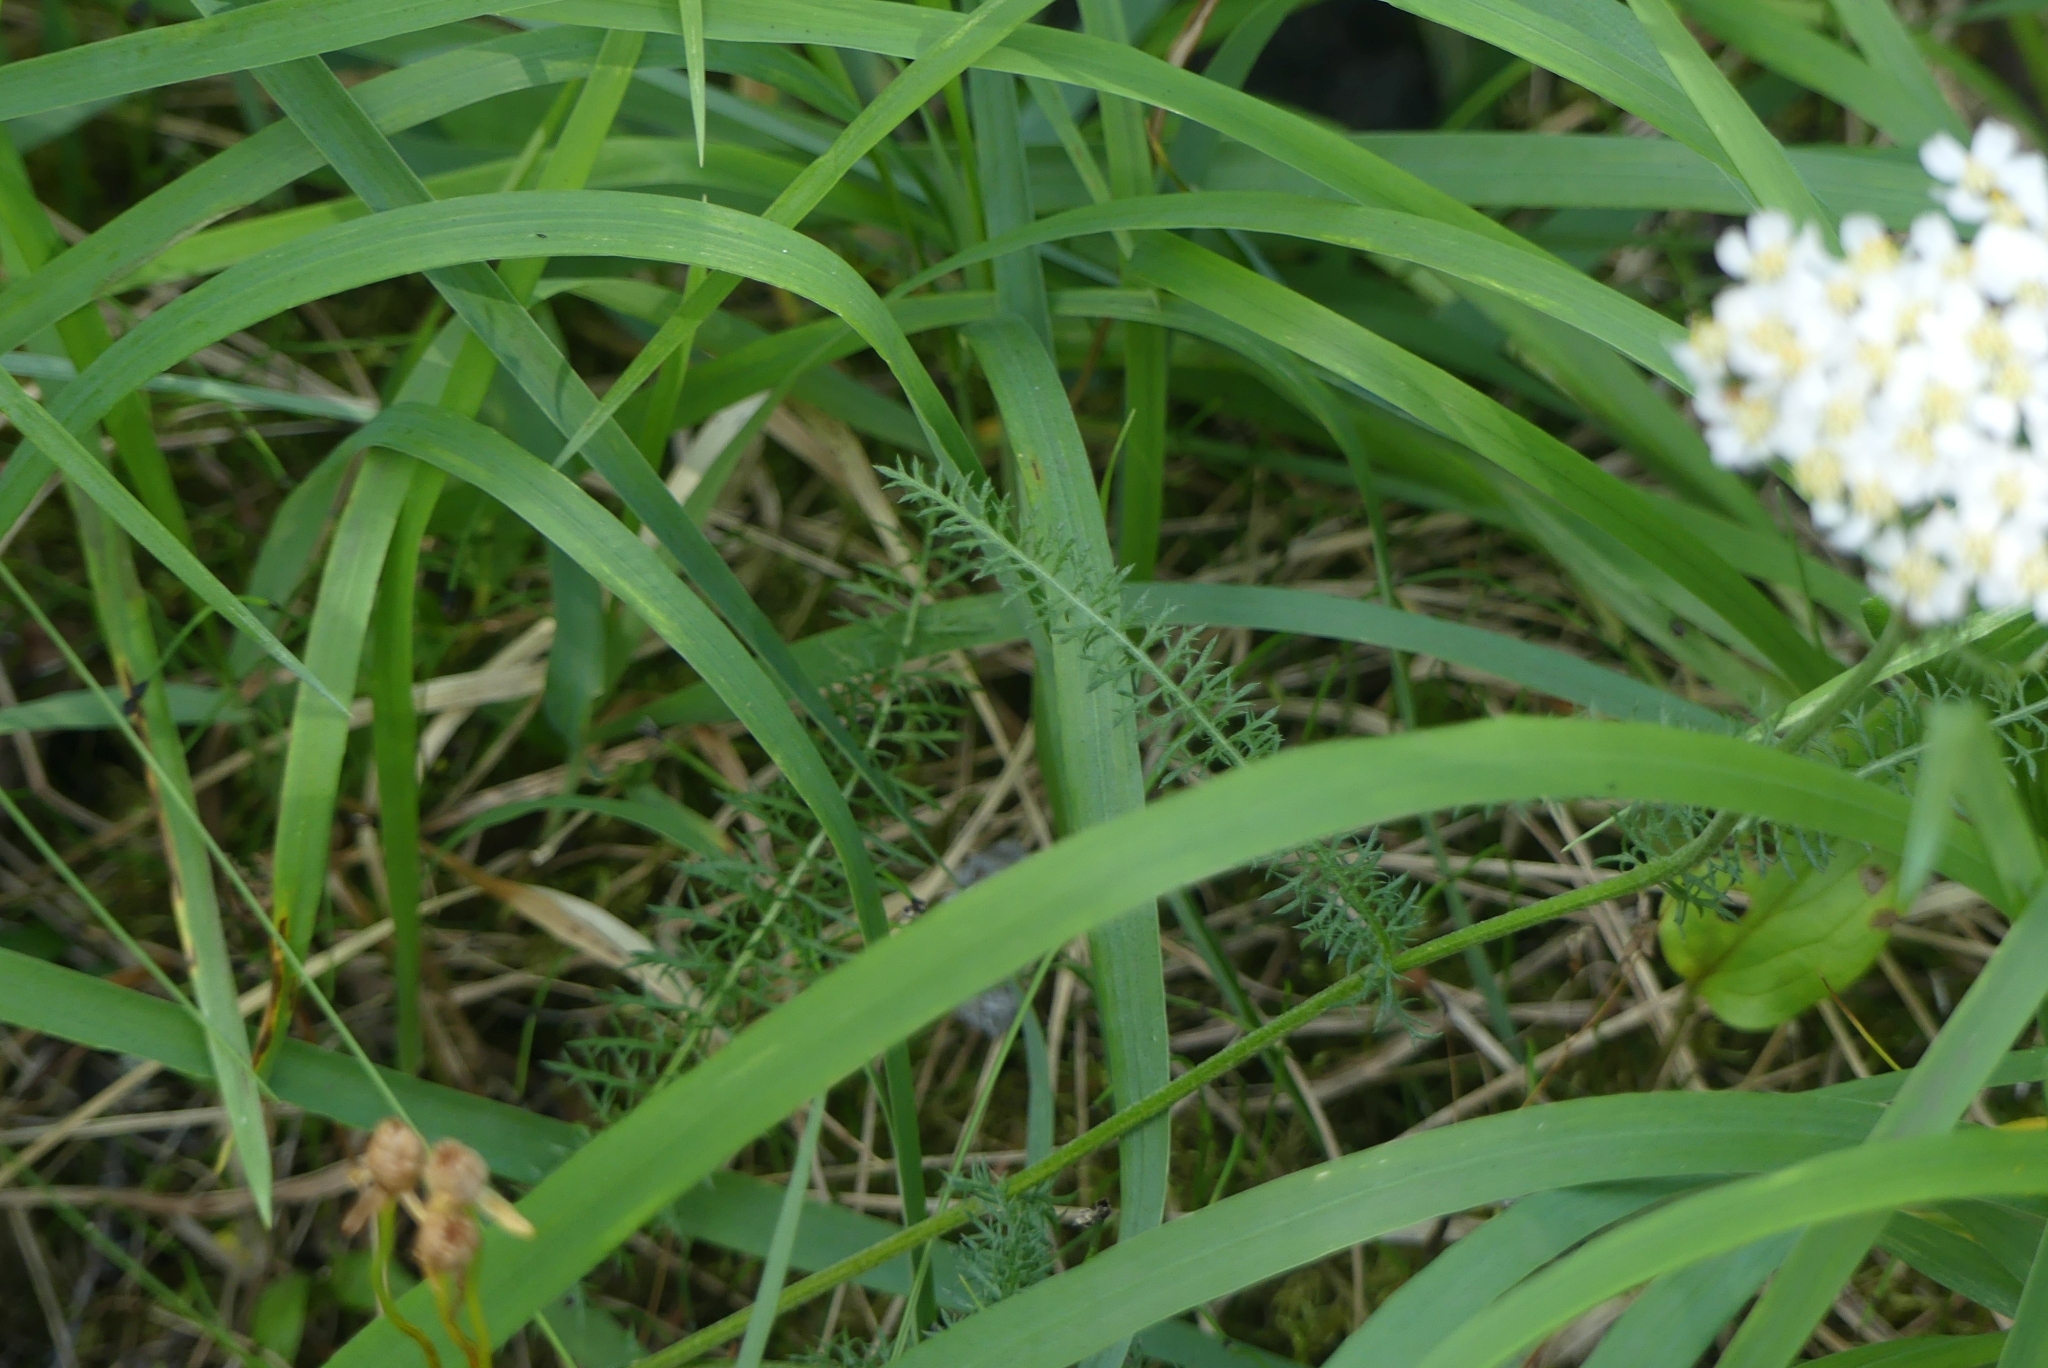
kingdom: Plantae
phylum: Tracheophyta
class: Magnoliopsida
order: Asterales
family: Asteraceae
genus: Achillea
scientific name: Achillea millefolium
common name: Yarrow
